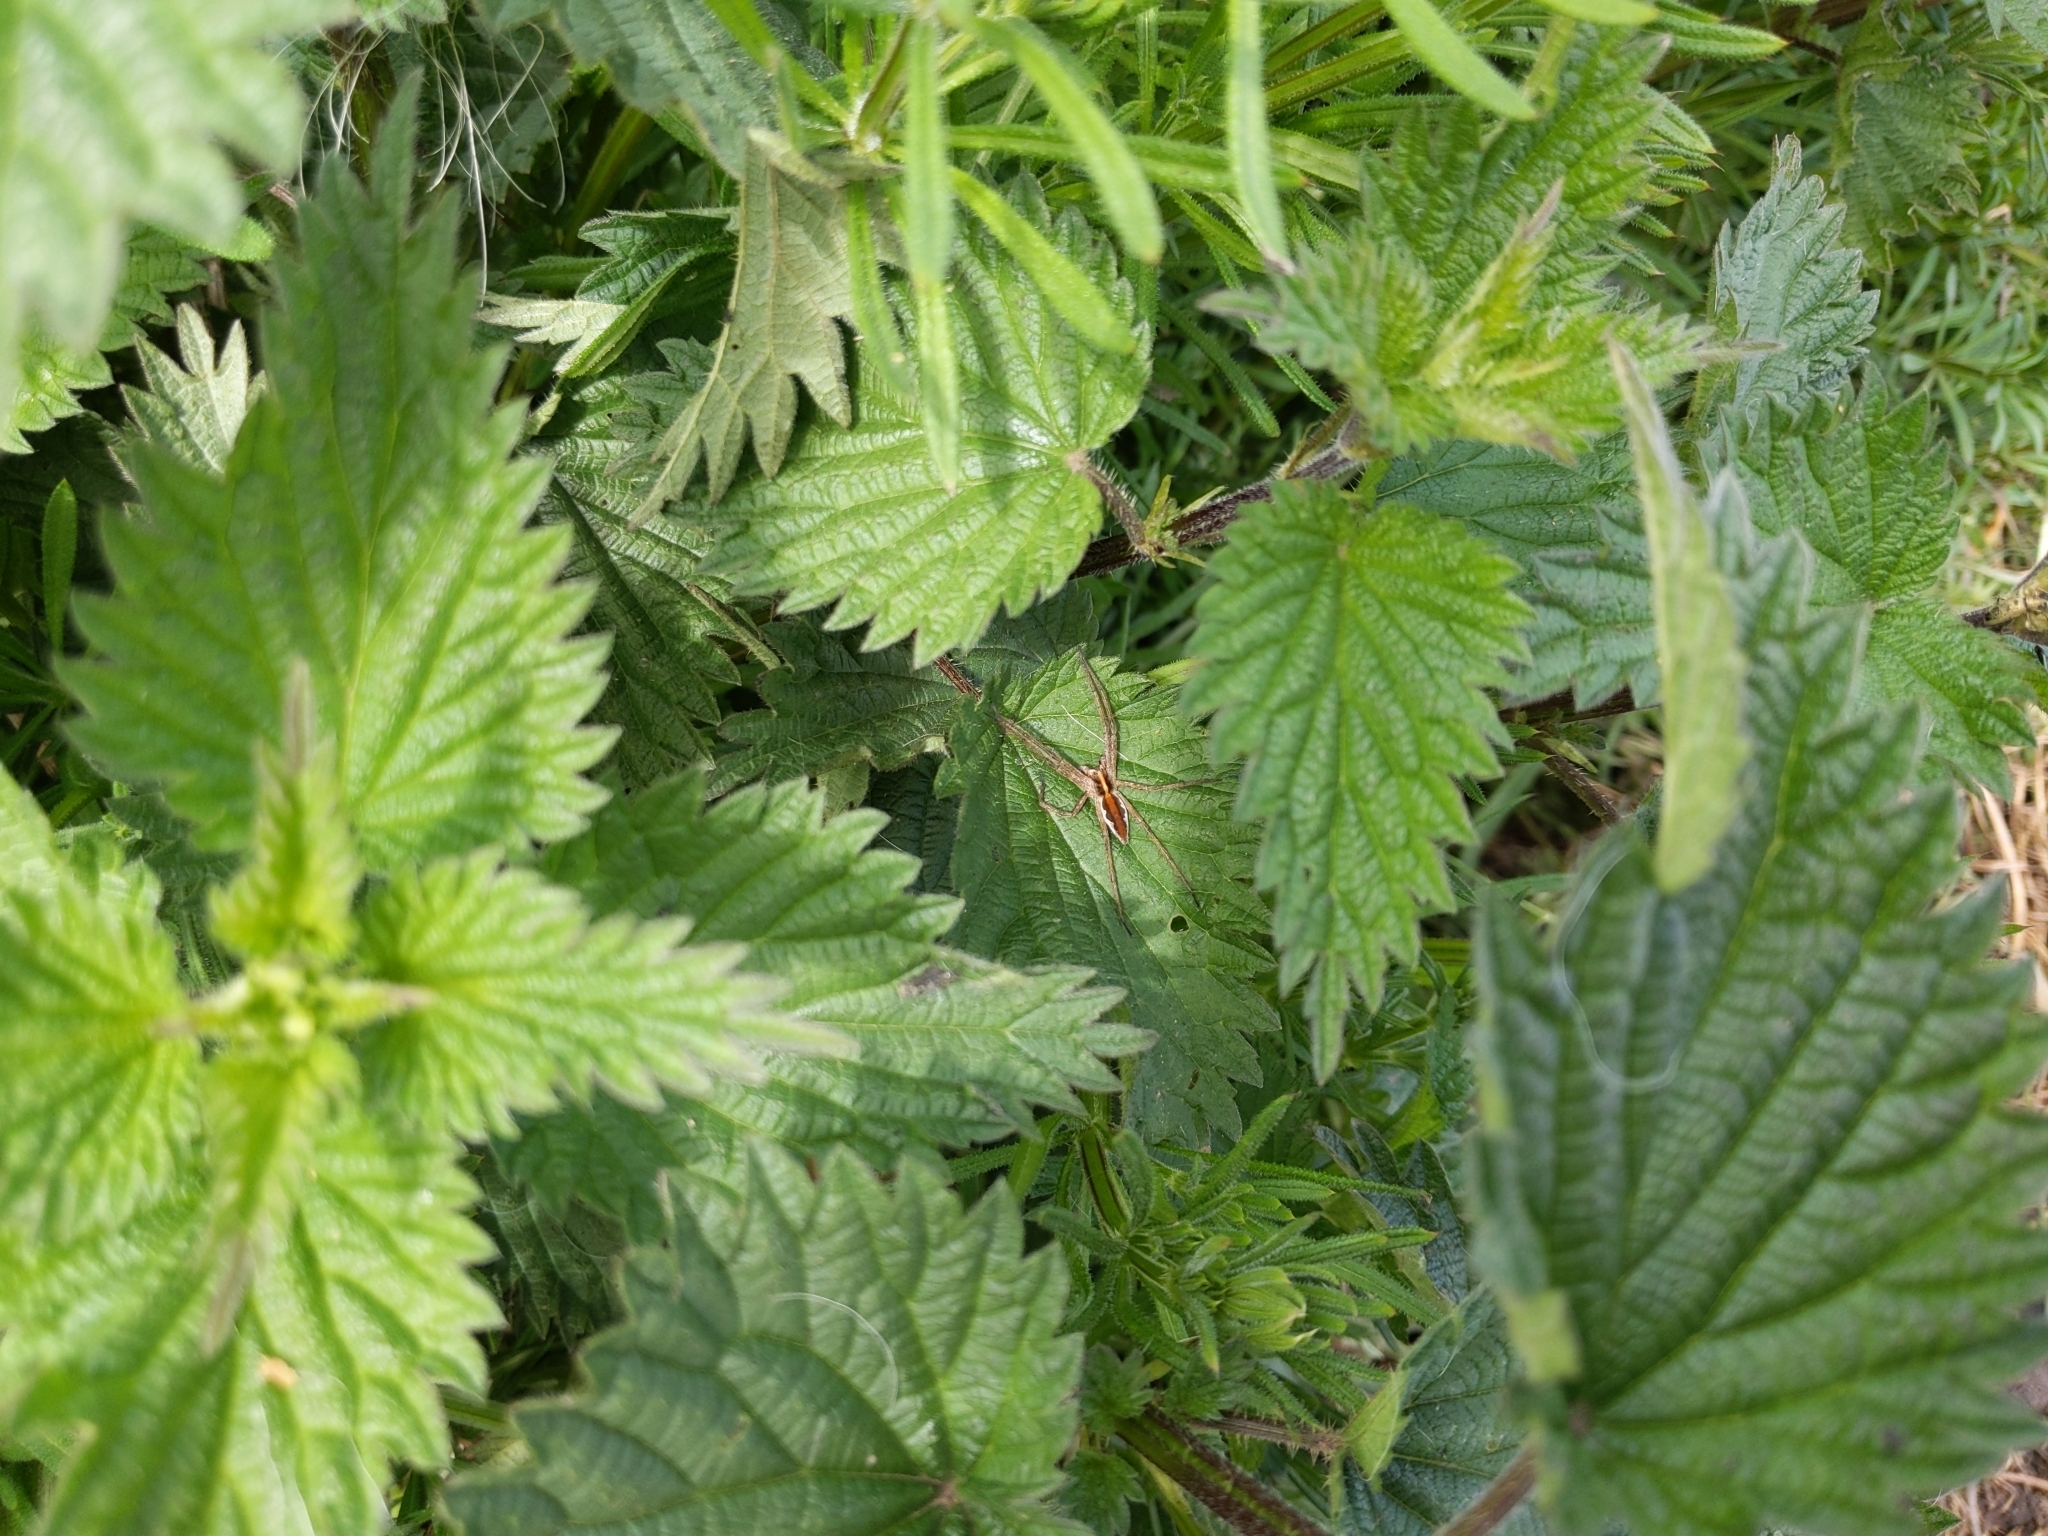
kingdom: Animalia
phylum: Arthropoda
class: Arachnida
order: Araneae
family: Pisauridae
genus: Pisaura
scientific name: Pisaura mirabilis
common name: Tent spider
